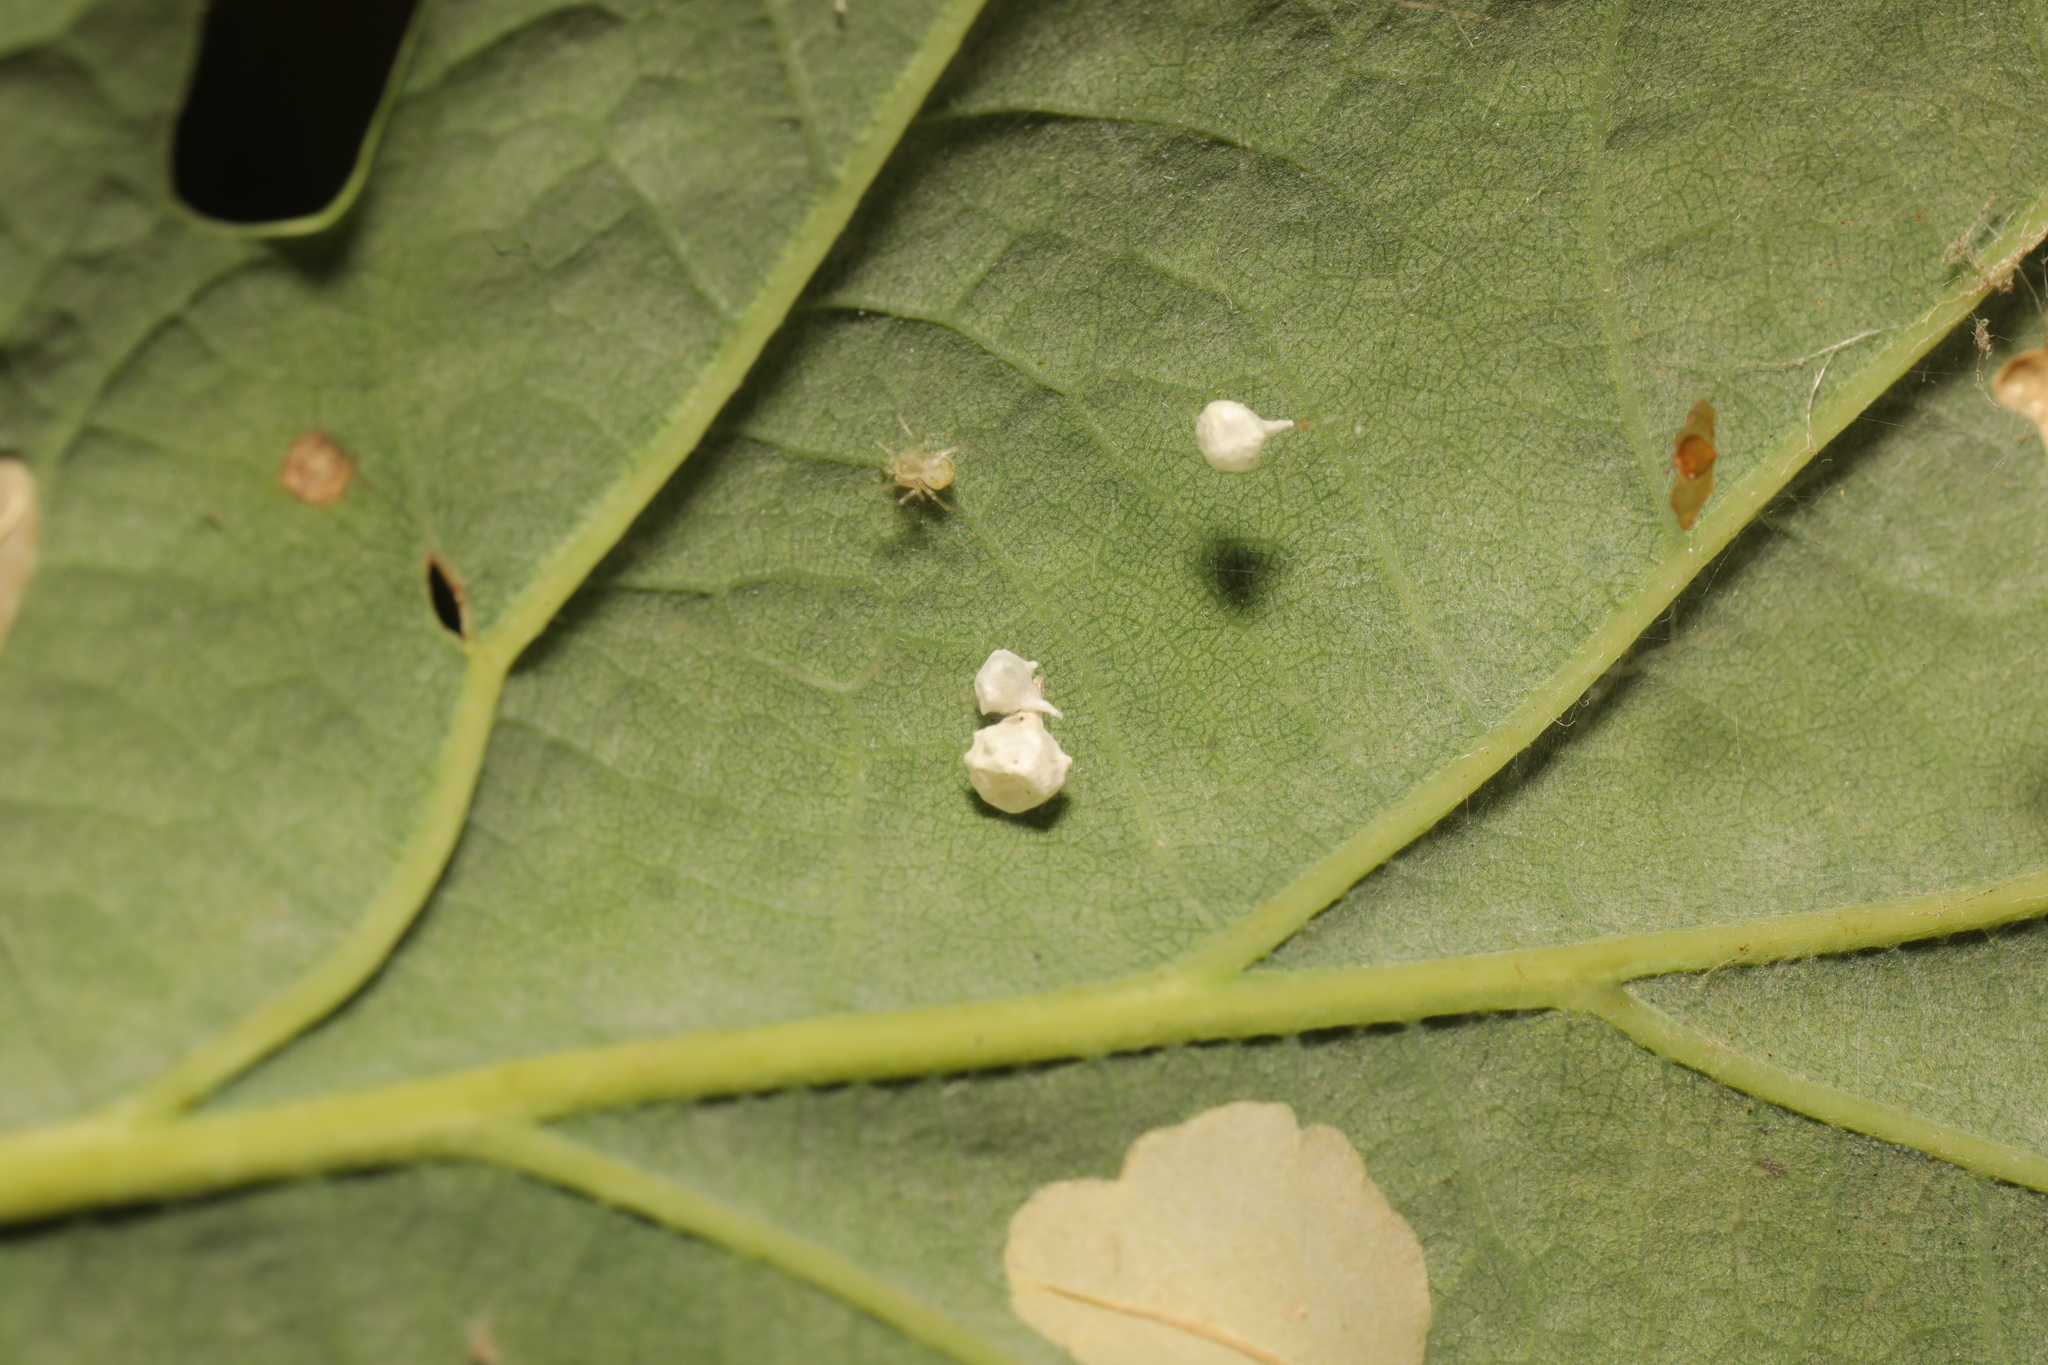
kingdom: Animalia
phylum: Arthropoda
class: Arachnida
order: Araneae
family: Theridiidae
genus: Paidiscura
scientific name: Paidiscura pallens
